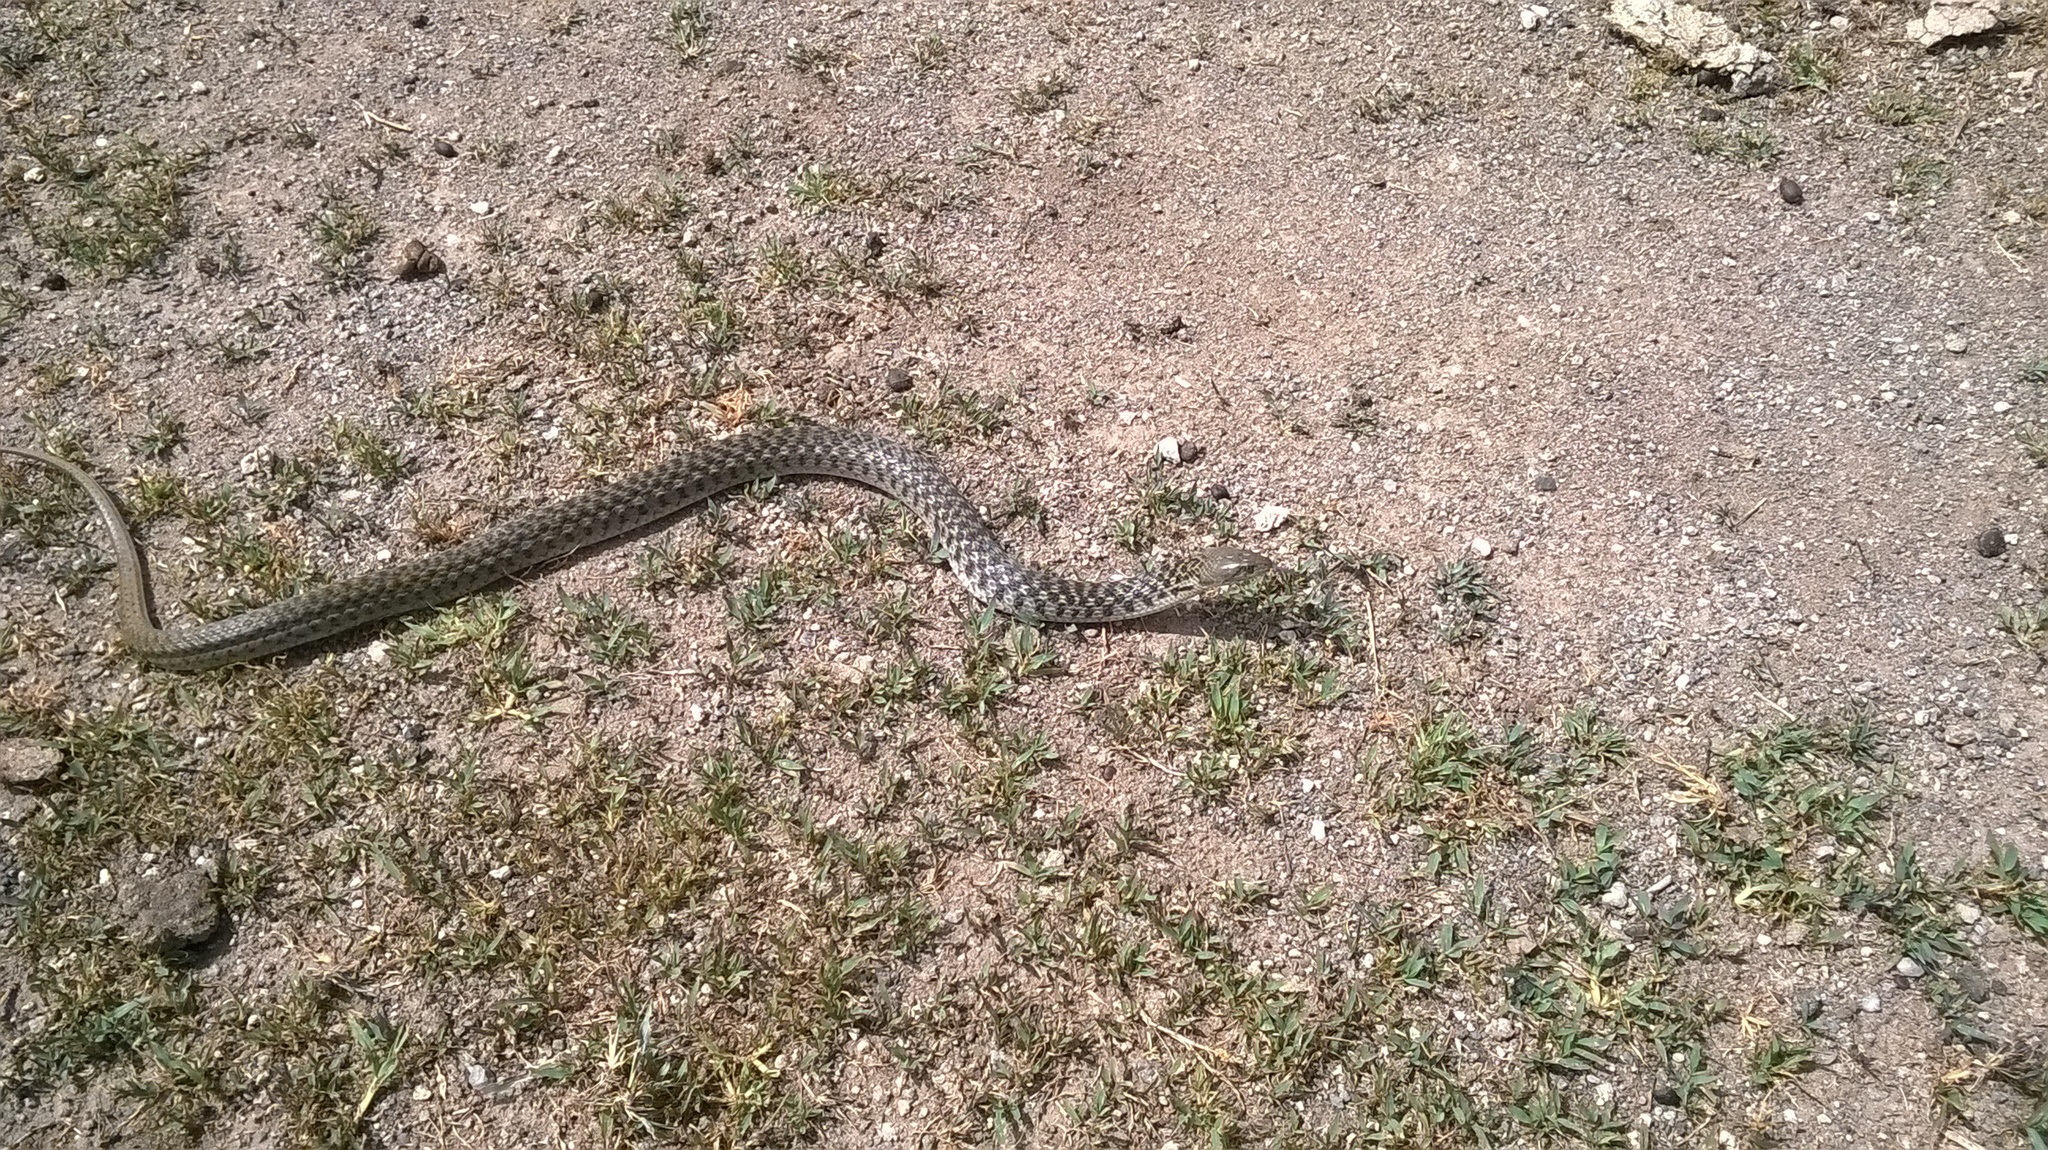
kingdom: Animalia
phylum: Chordata
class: Squamata
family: Colubridae
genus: Fowlea
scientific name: Fowlea piscator
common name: Asiatic water snake
